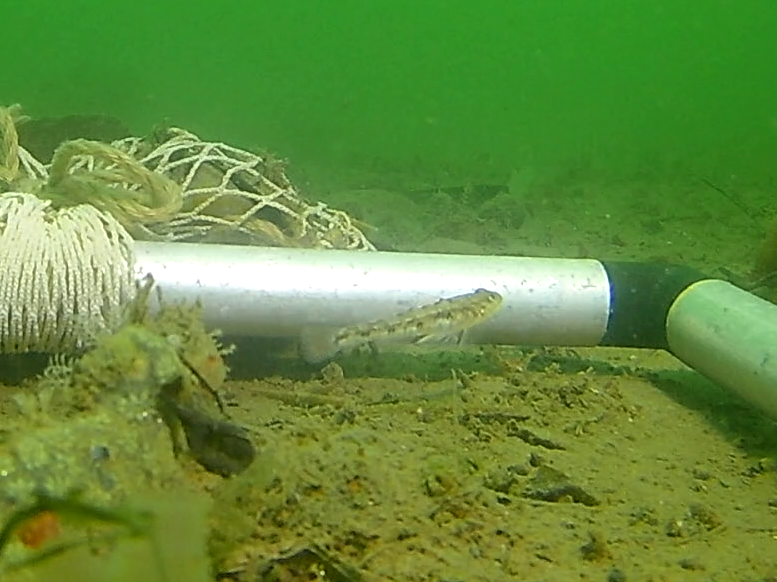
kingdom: Animalia
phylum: Chordata
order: Perciformes
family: Gobiidae
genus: Pomatoschistus
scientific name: Pomatoschistus pictus
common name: Painted goby
